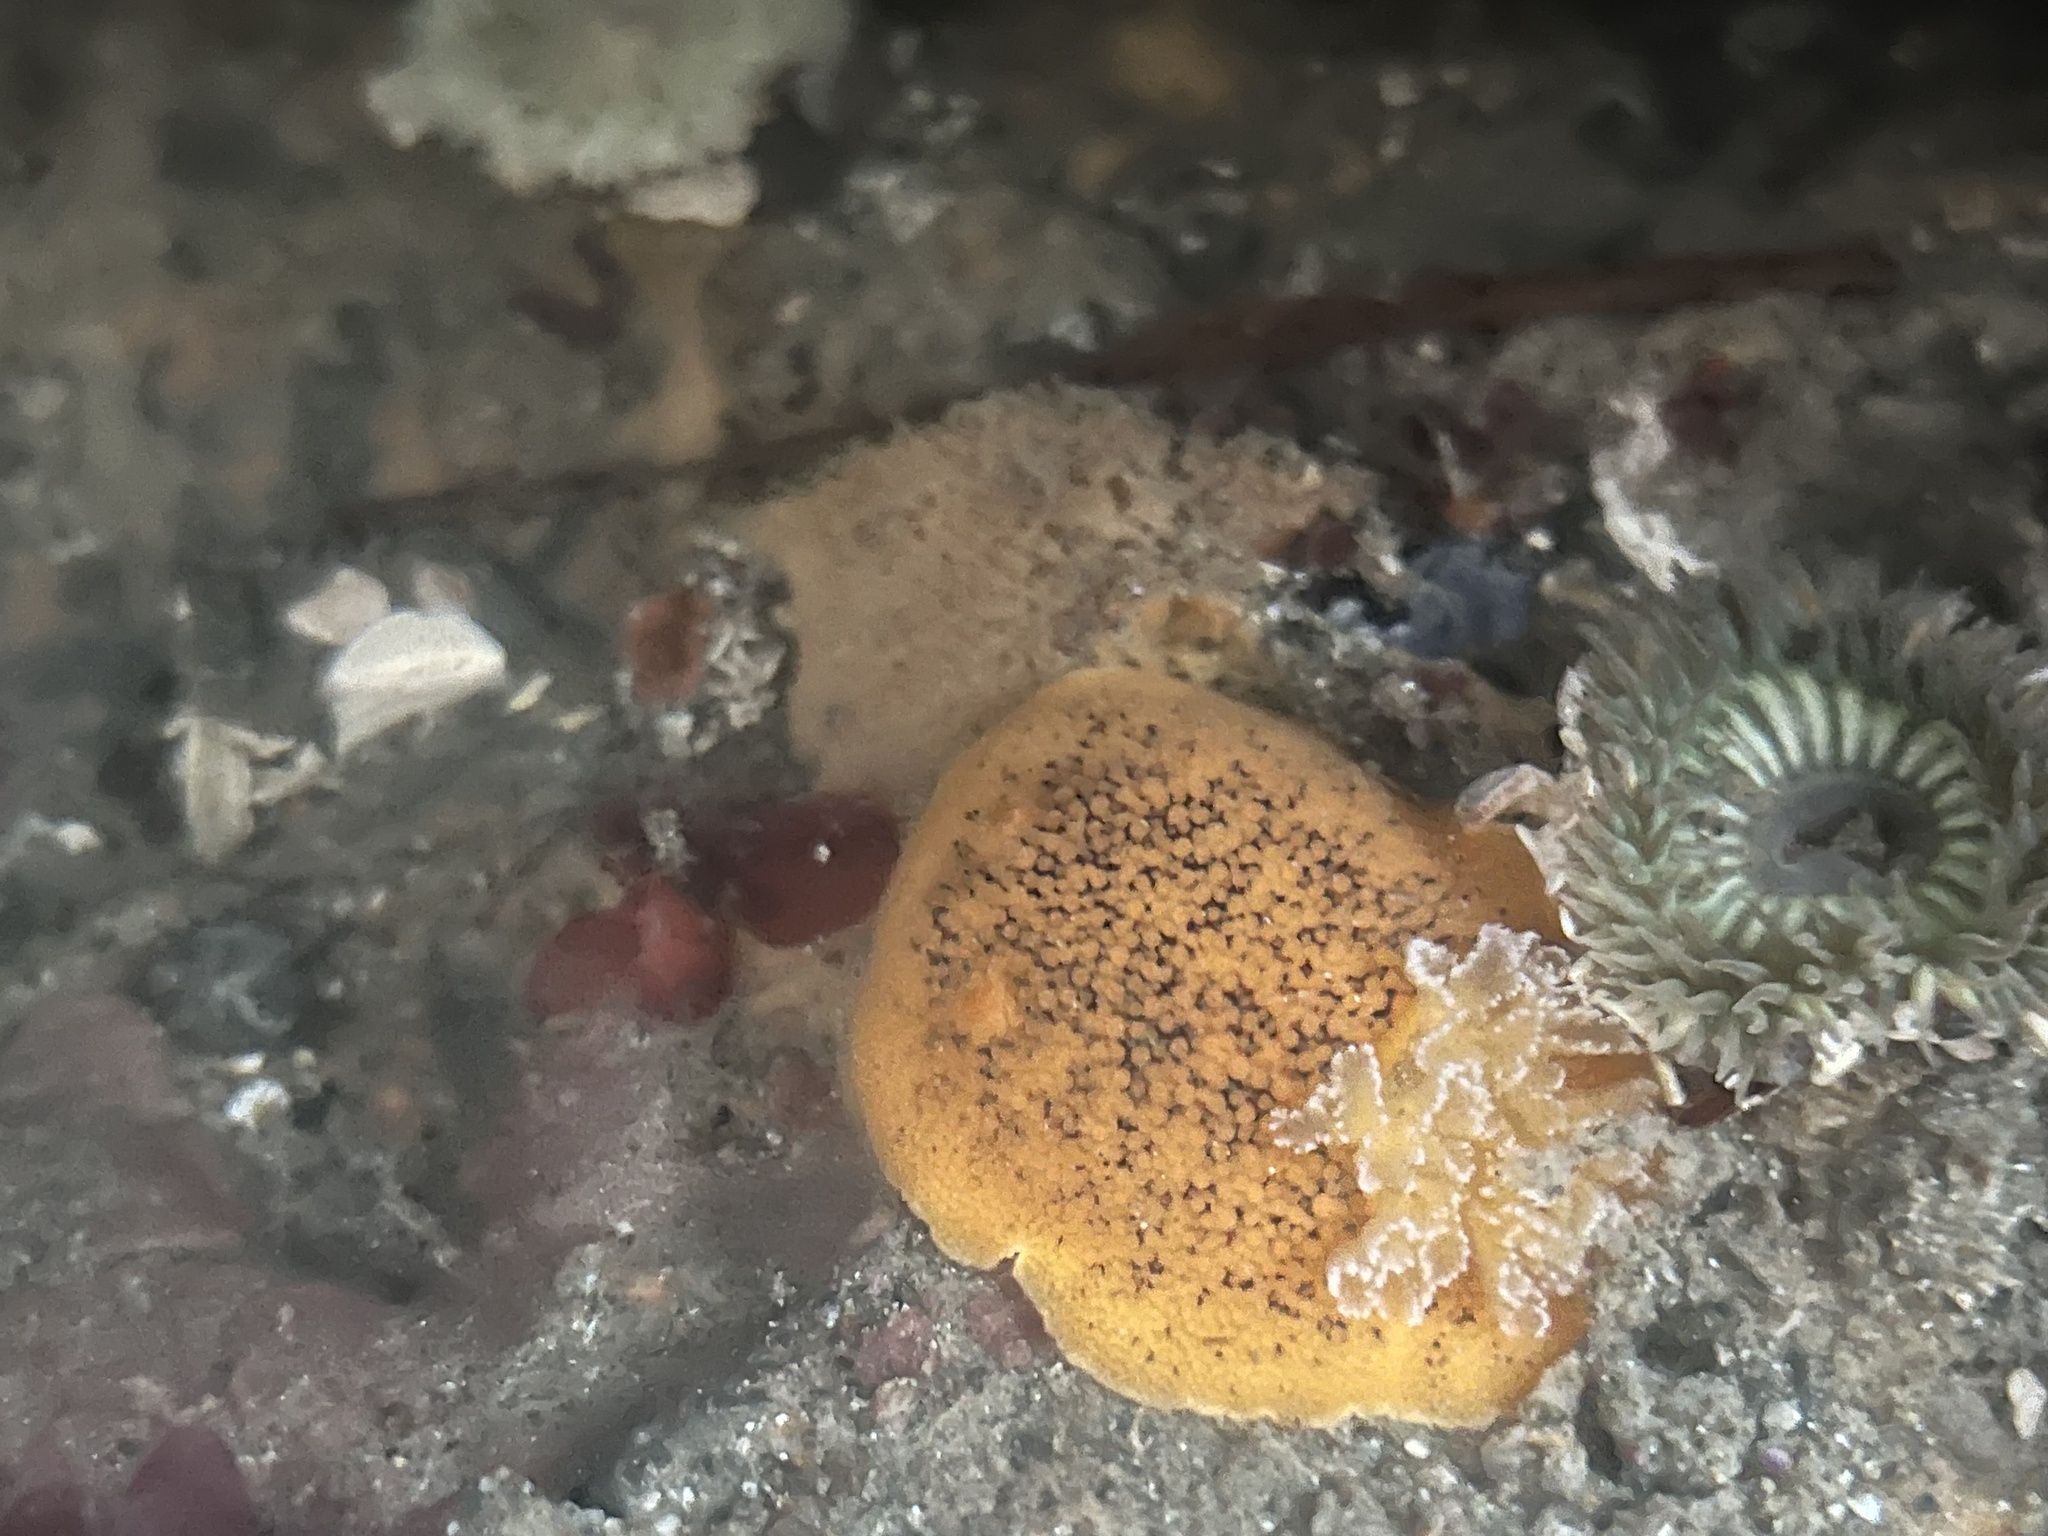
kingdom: Animalia
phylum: Mollusca
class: Gastropoda
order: Nudibranchia
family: Discodorididae
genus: Peltodoris
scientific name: Peltodoris nobilis
